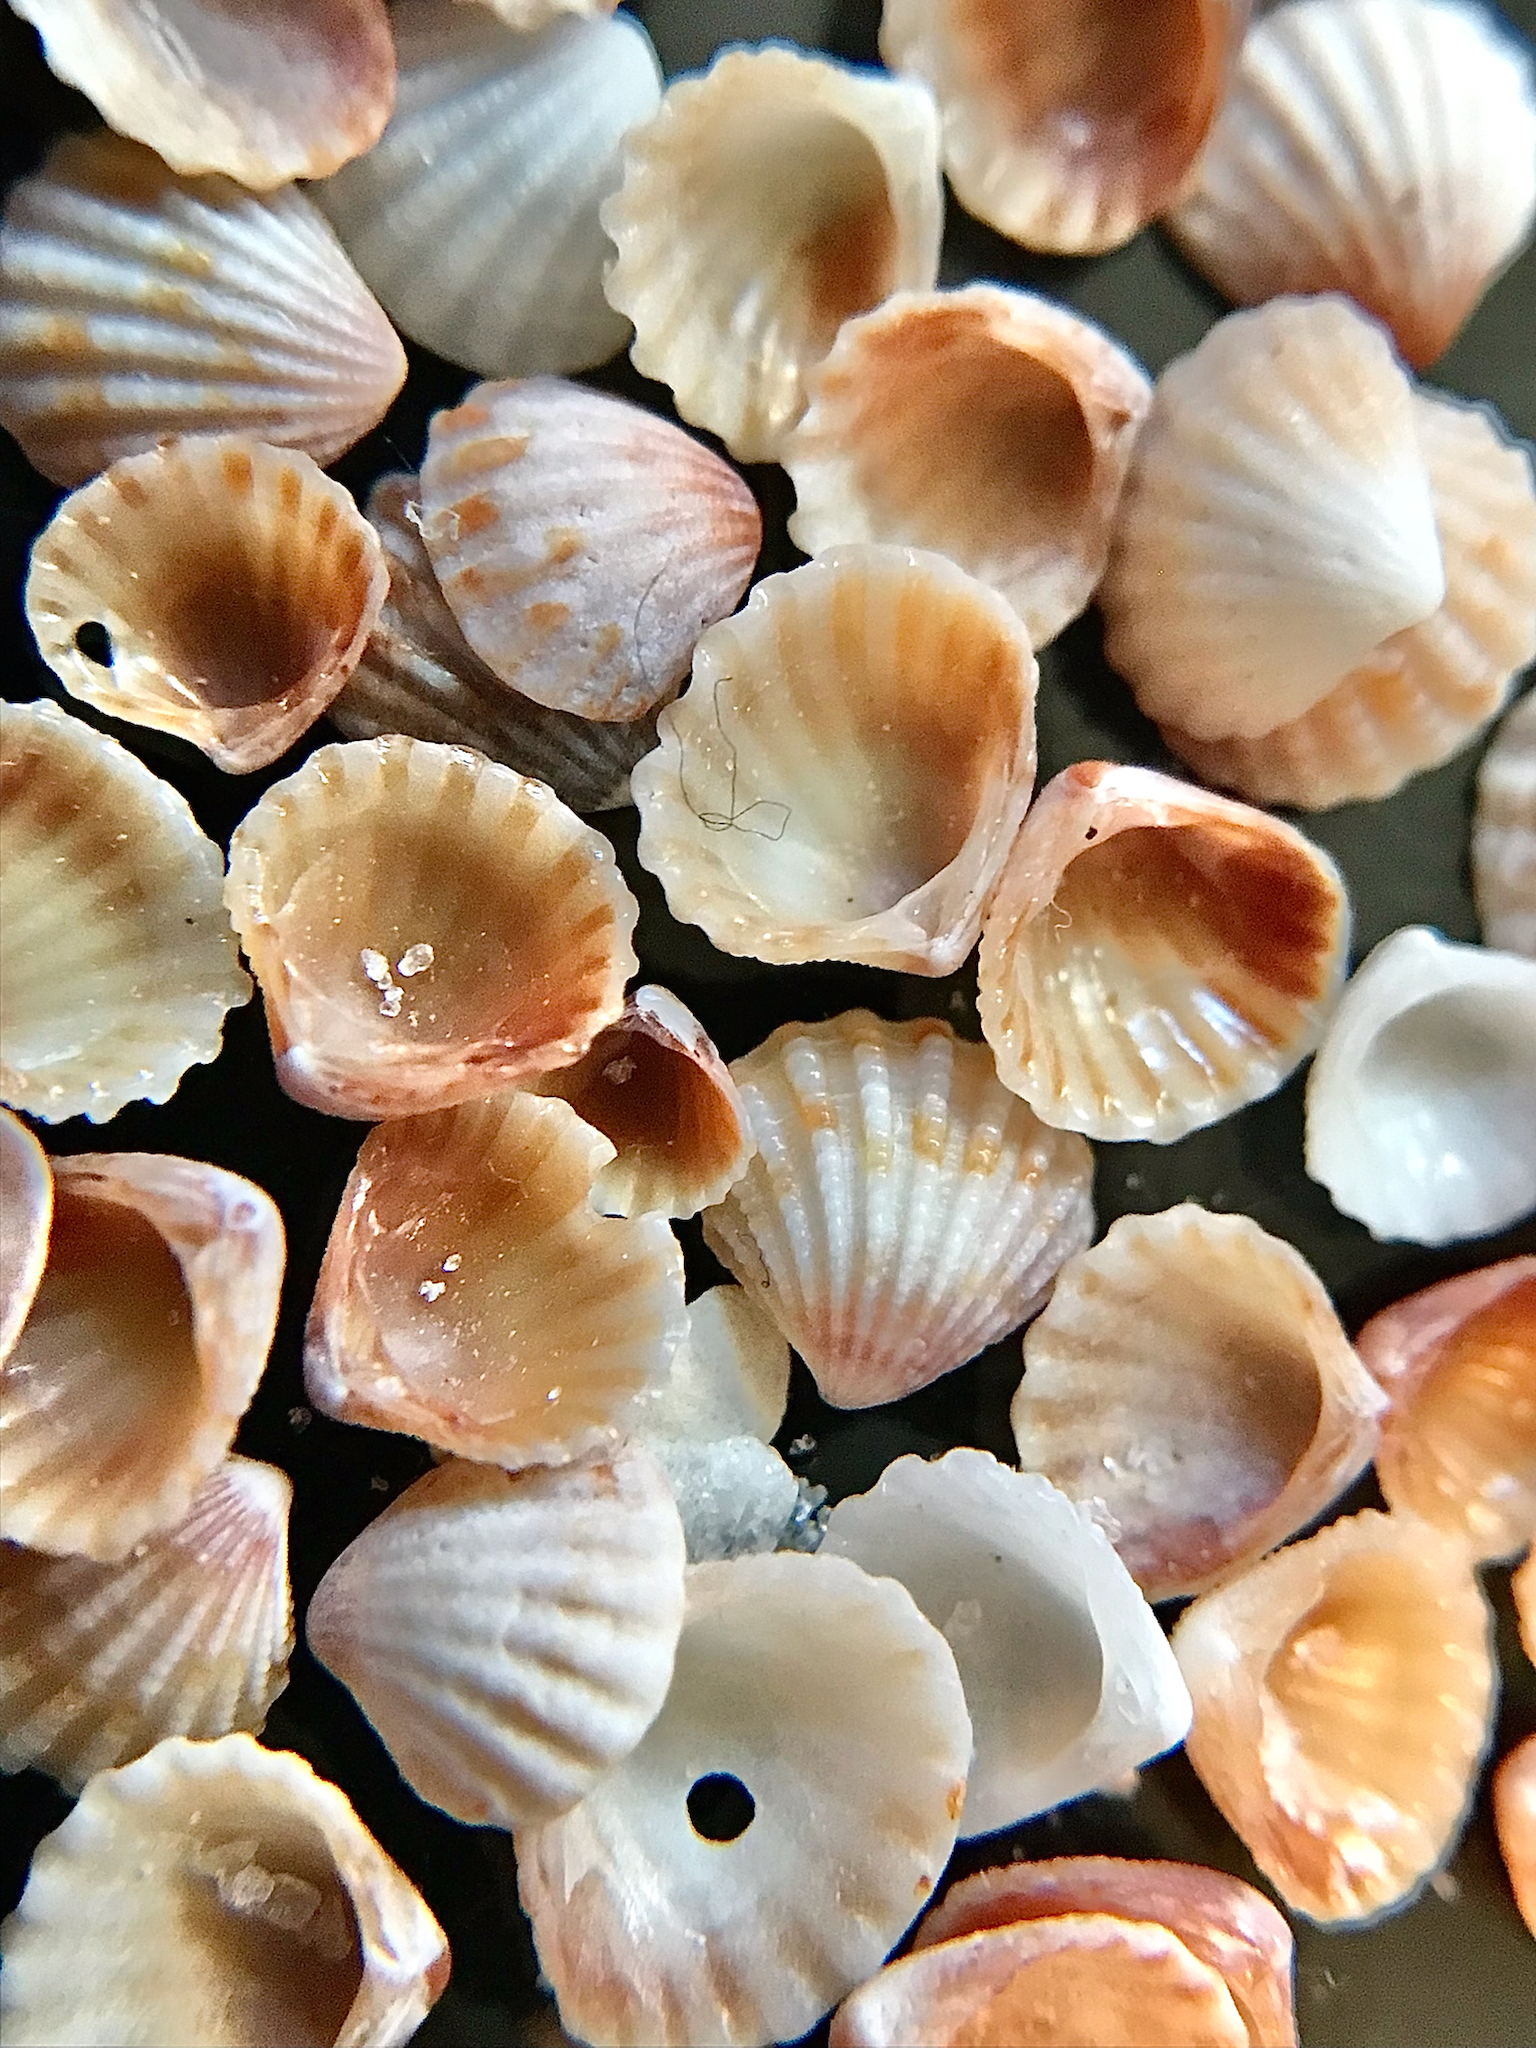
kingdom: Animalia
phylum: Mollusca
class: Bivalvia
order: Carditida
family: Carditidae
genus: Pleuromeris
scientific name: Pleuromeris tridentata
